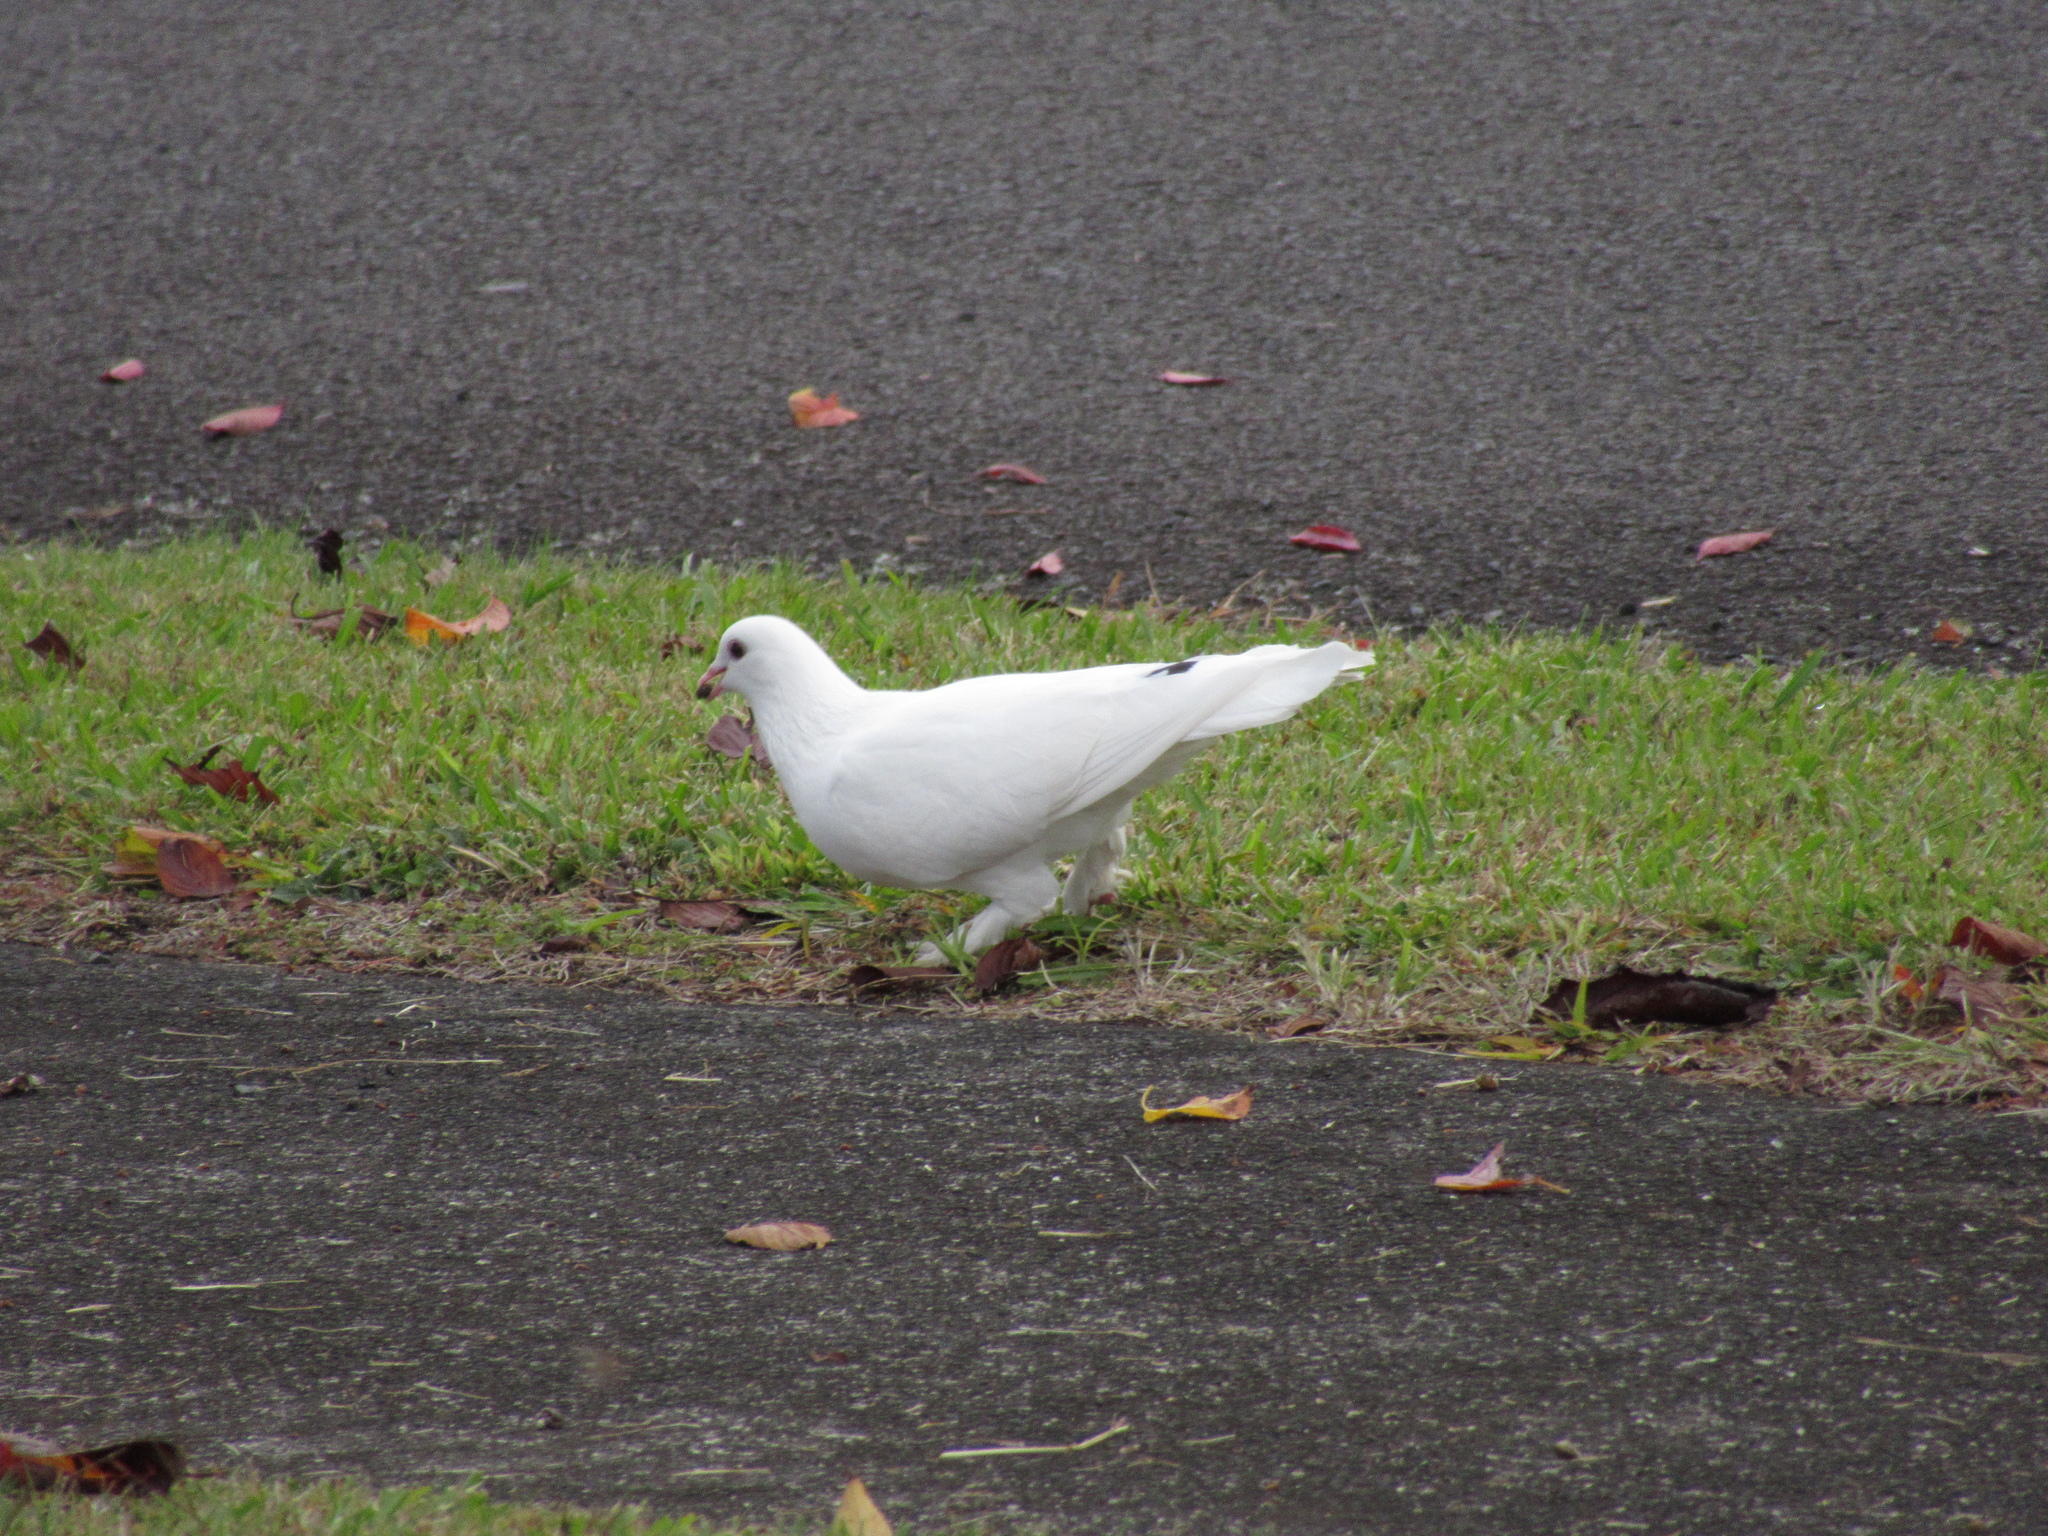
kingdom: Animalia
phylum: Chordata
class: Aves
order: Columbiformes
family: Columbidae
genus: Columba
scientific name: Columba livia
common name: Rock pigeon
